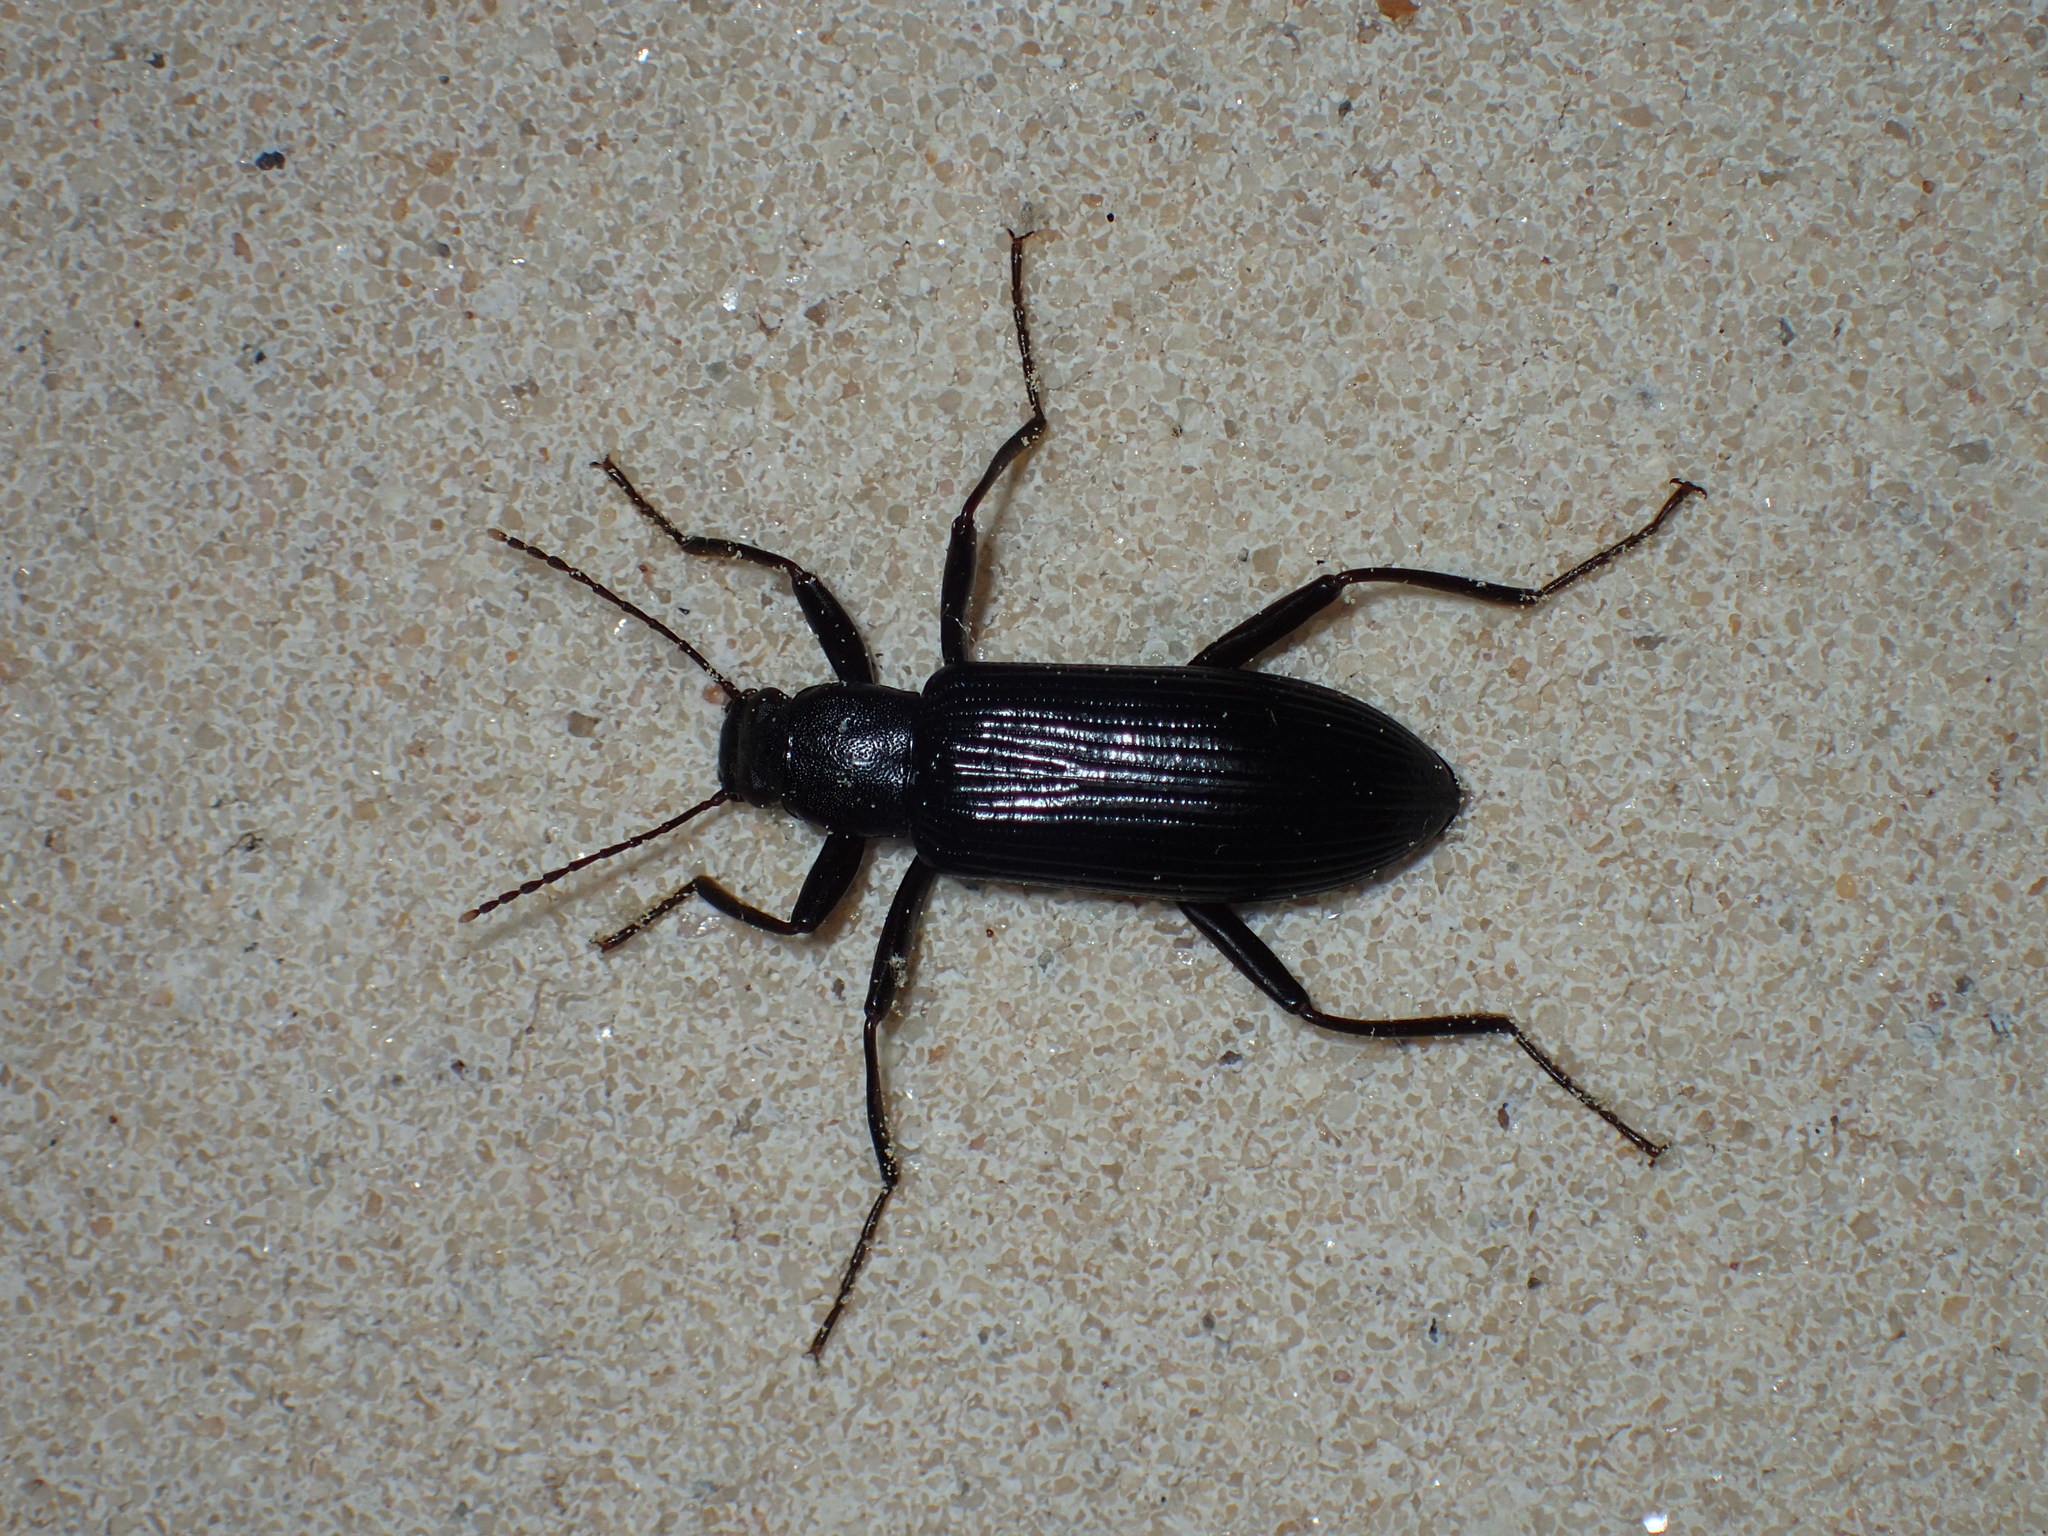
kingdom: Animalia
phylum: Arthropoda
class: Insecta
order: Coleoptera
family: Tenebrionidae
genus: Strongylium
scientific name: Strongylium tenuicolle
